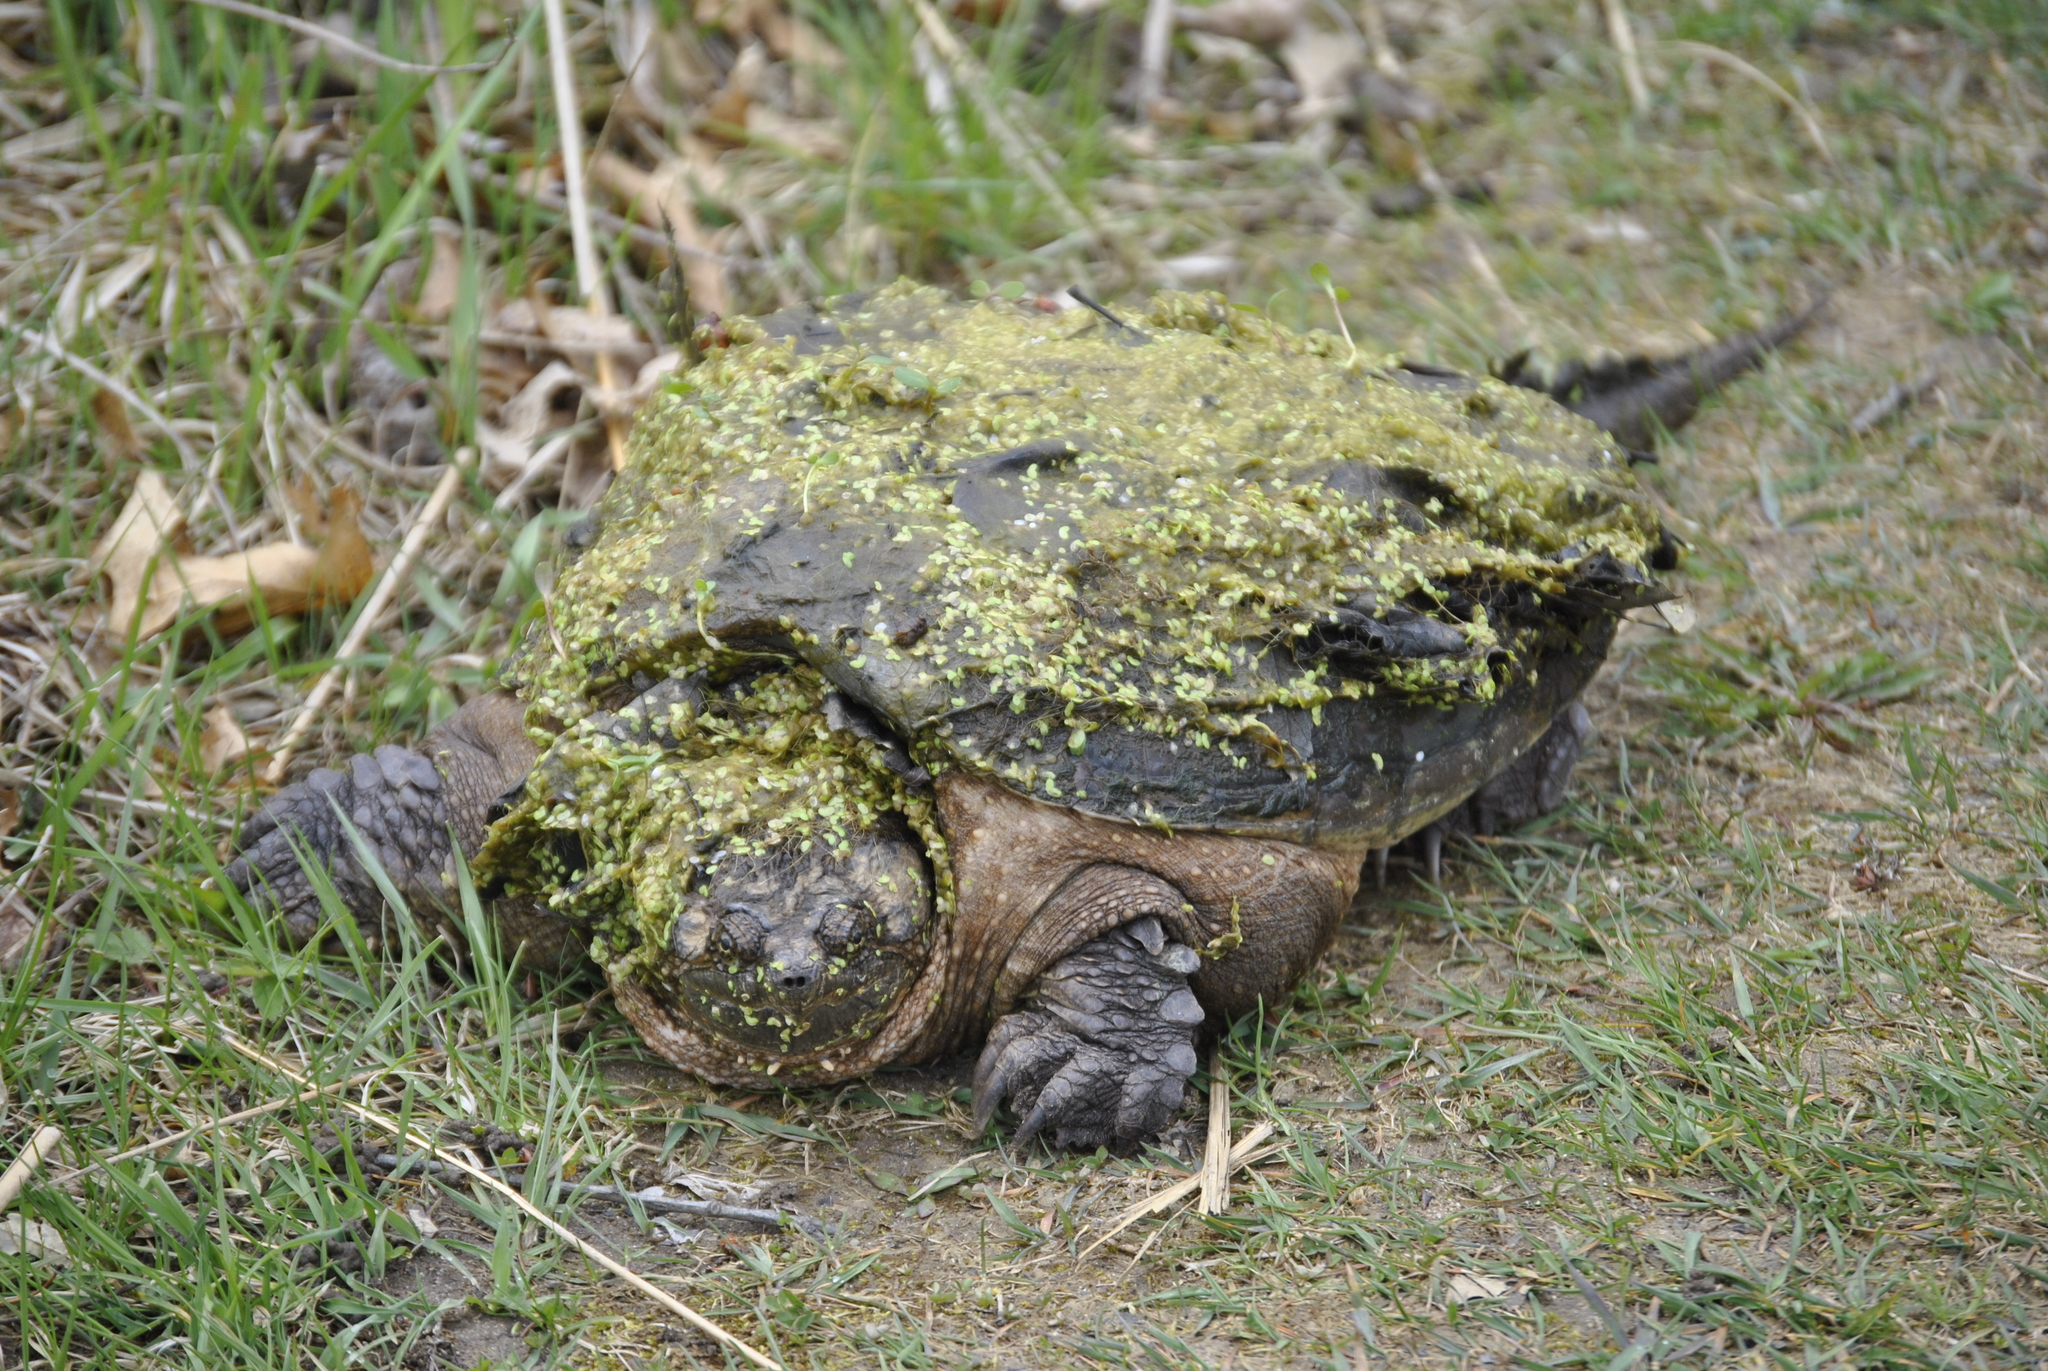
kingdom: Animalia
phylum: Chordata
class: Testudines
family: Chelydridae
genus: Chelydra
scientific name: Chelydra serpentina
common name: Common snapping turtle
